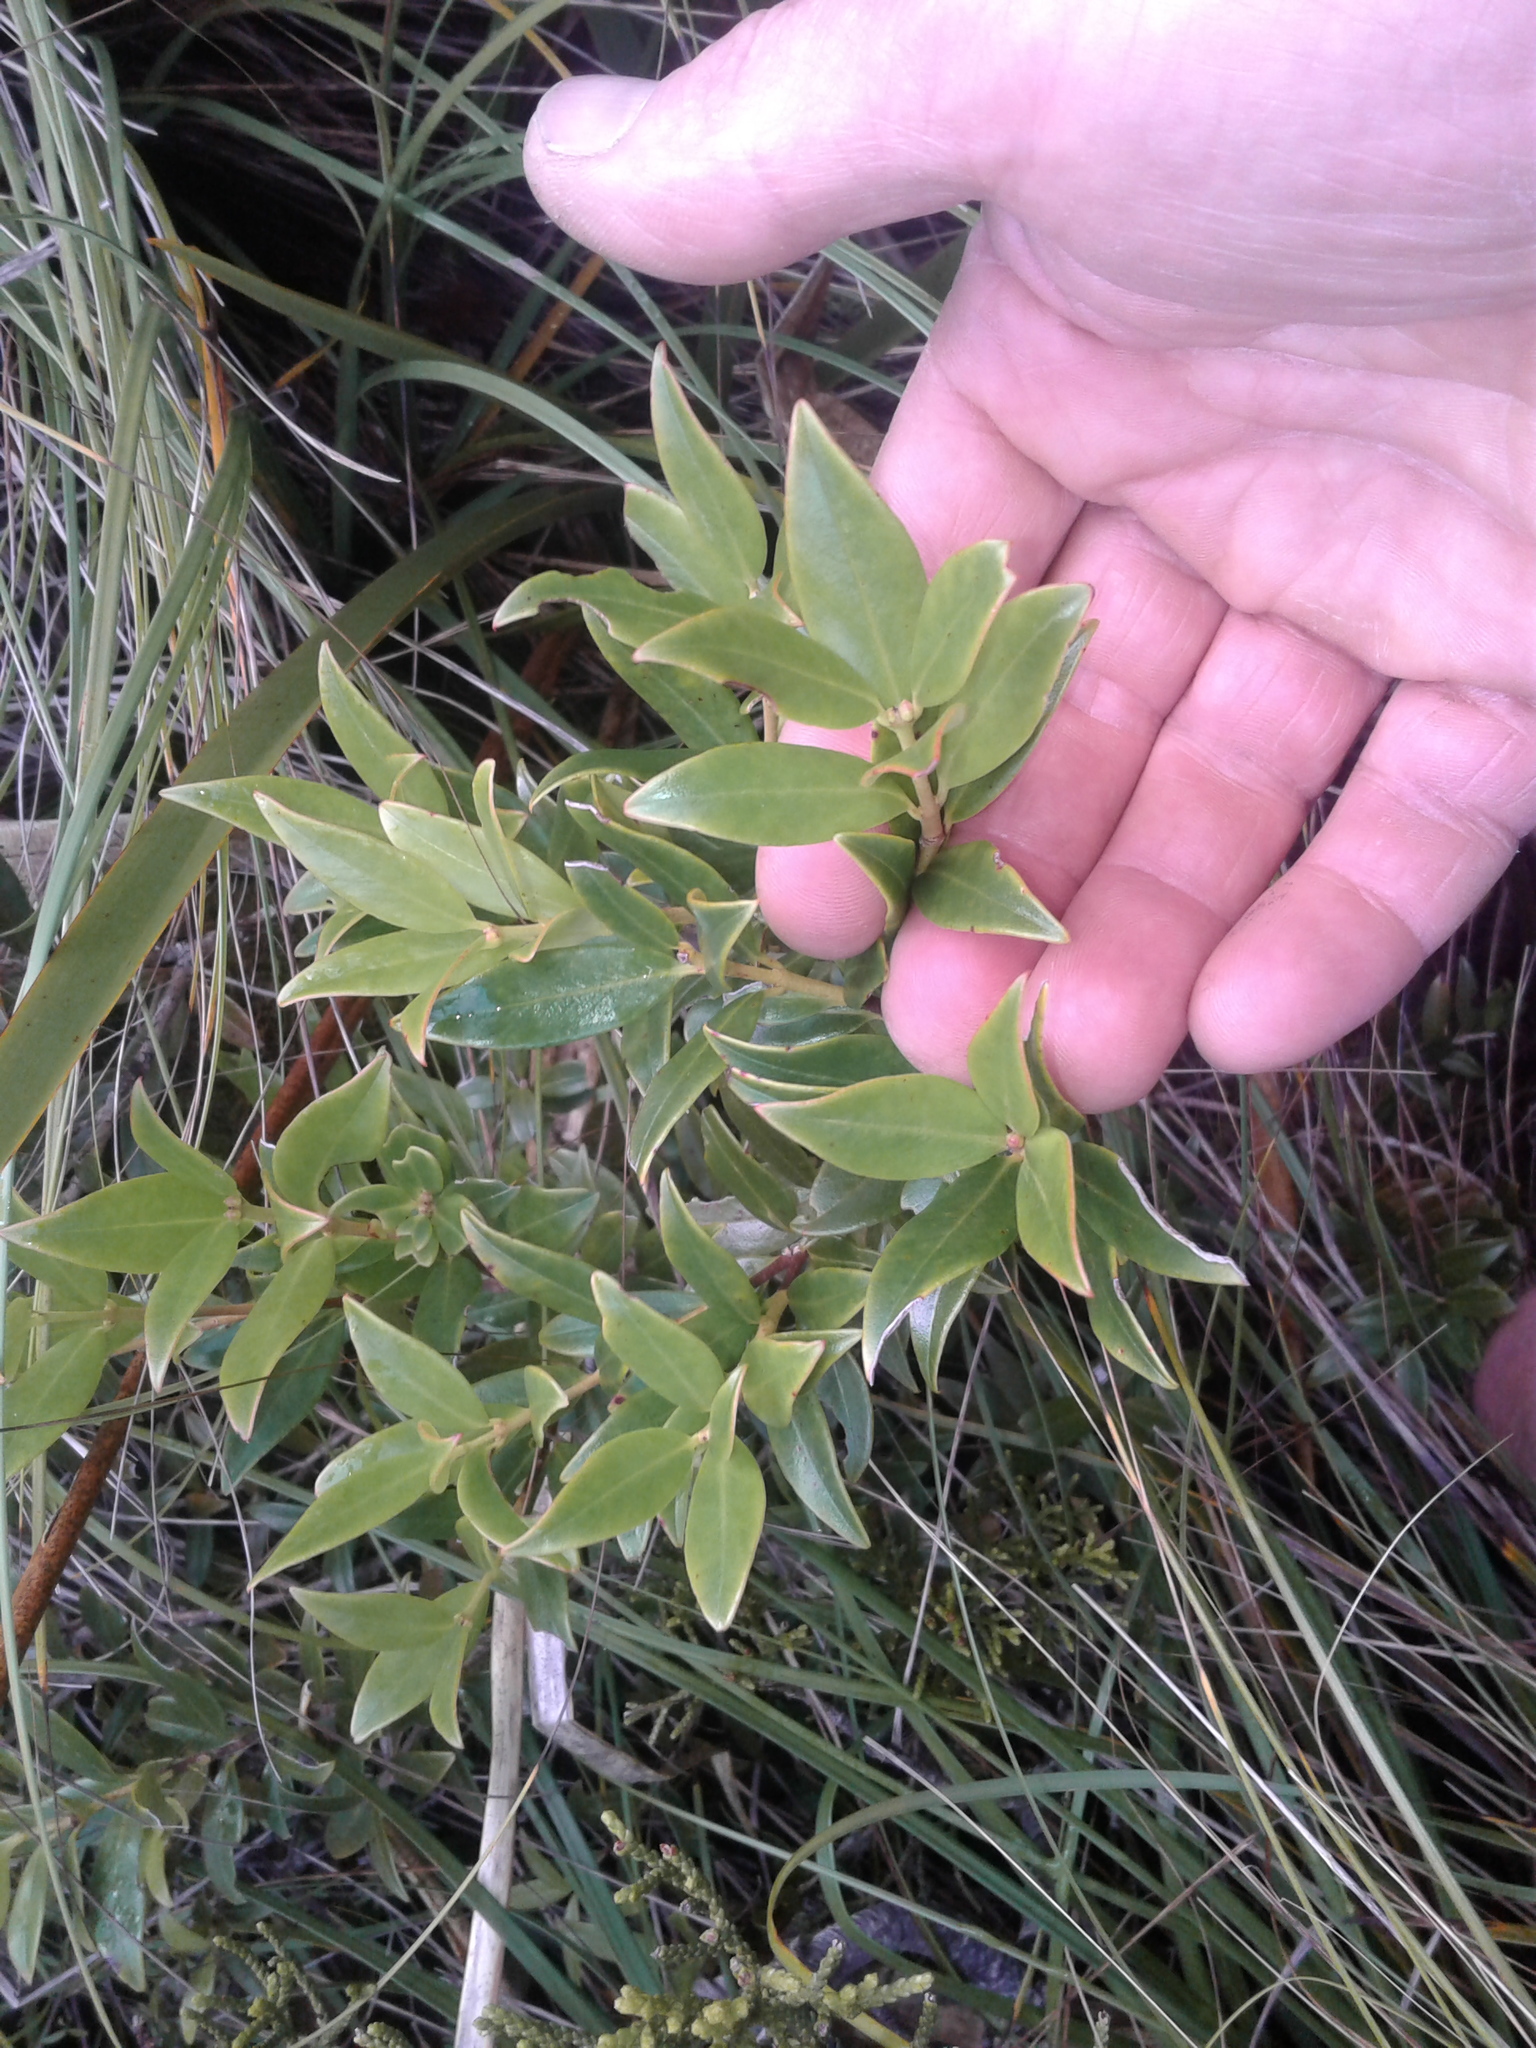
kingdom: Plantae
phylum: Tracheophyta
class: Magnoliopsida
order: Myrtales
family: Myrtaceae
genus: Metrosideros
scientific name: Metrosideros umbellata
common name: Southern rata
